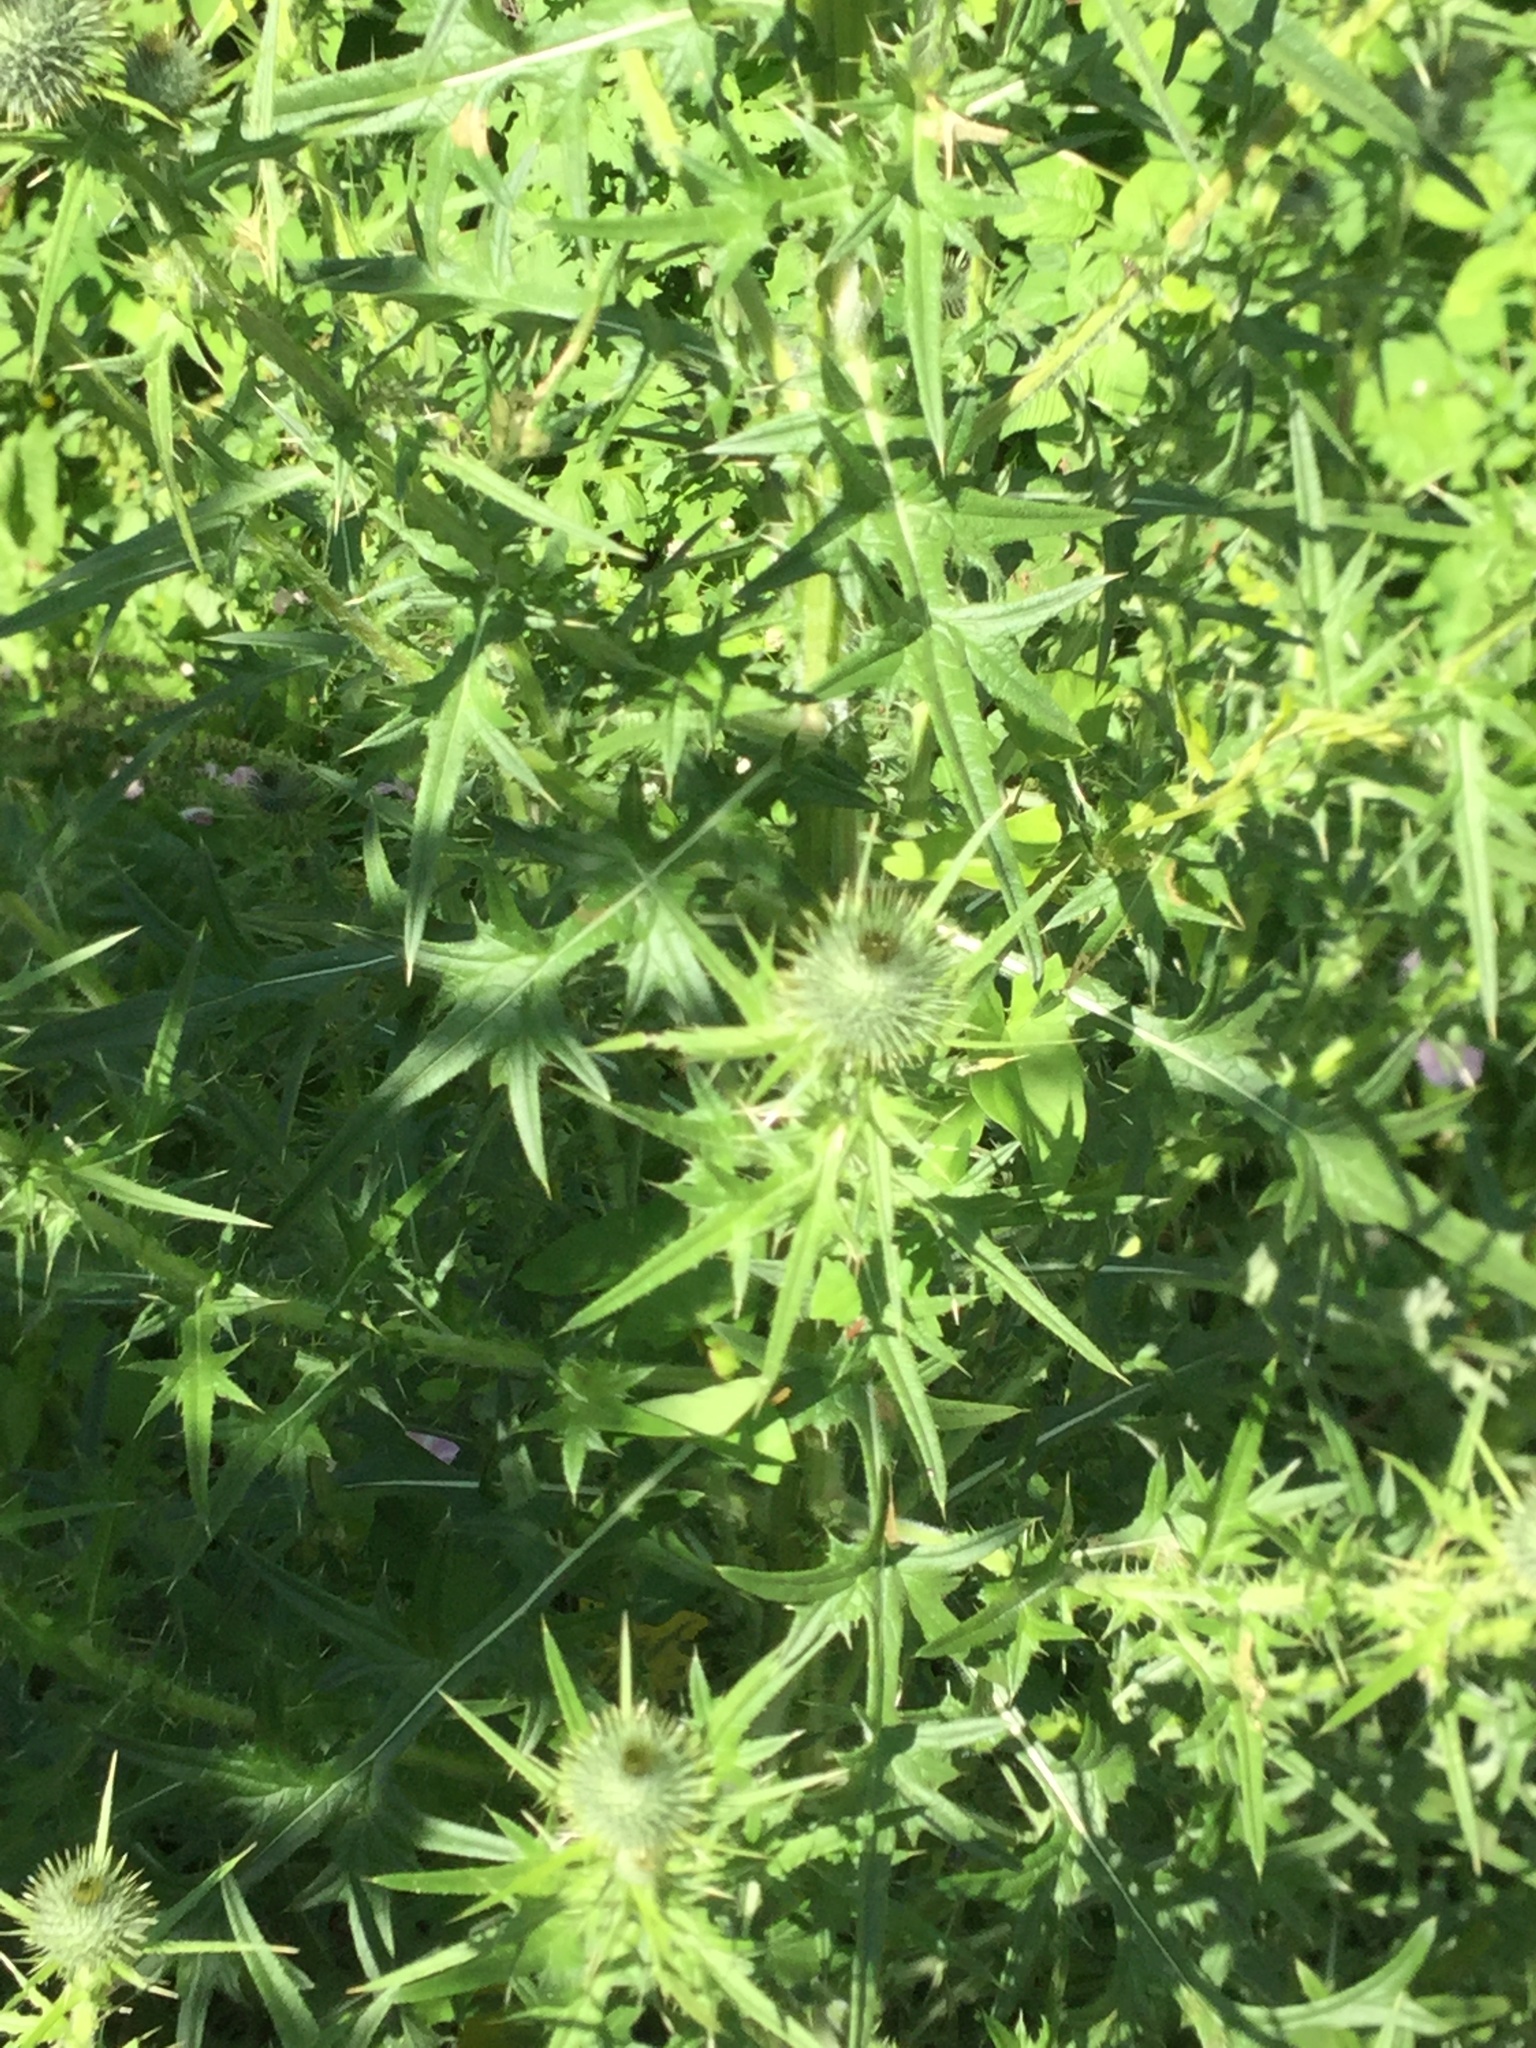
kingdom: Plantae
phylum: Tracheophyta
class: Magnoliopsida
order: Asterales
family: Asteraceae
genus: Cirsium
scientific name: Cirsium vulgare
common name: Bull thistle
